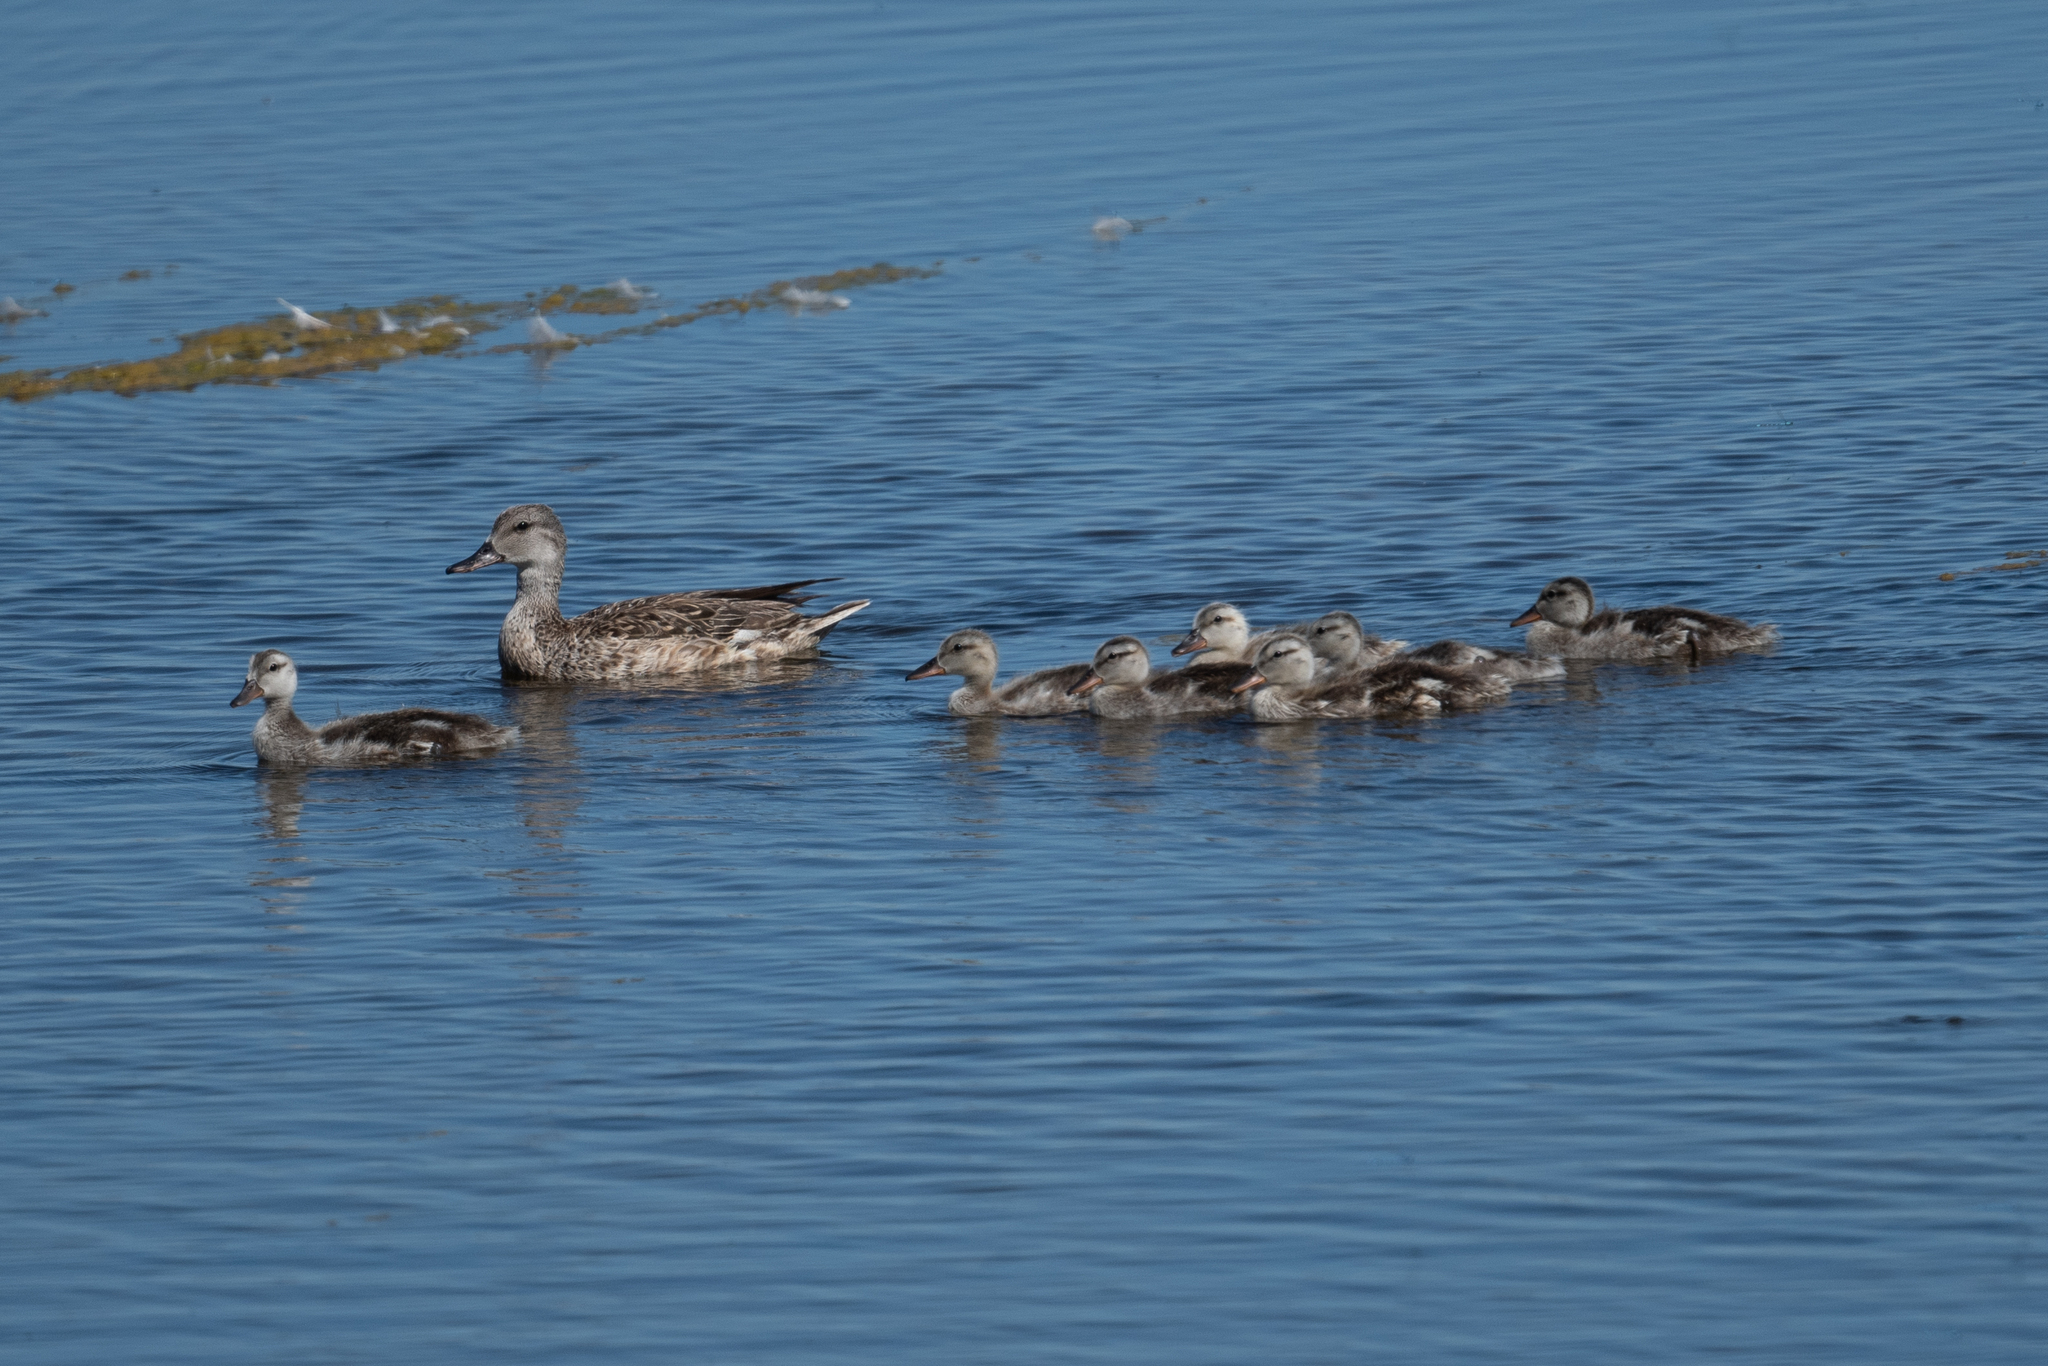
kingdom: Animalia
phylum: Chordata
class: Aves
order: Anseriformes
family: Anatidae
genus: Mareca
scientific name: Mareca strepera
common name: Gadwall
